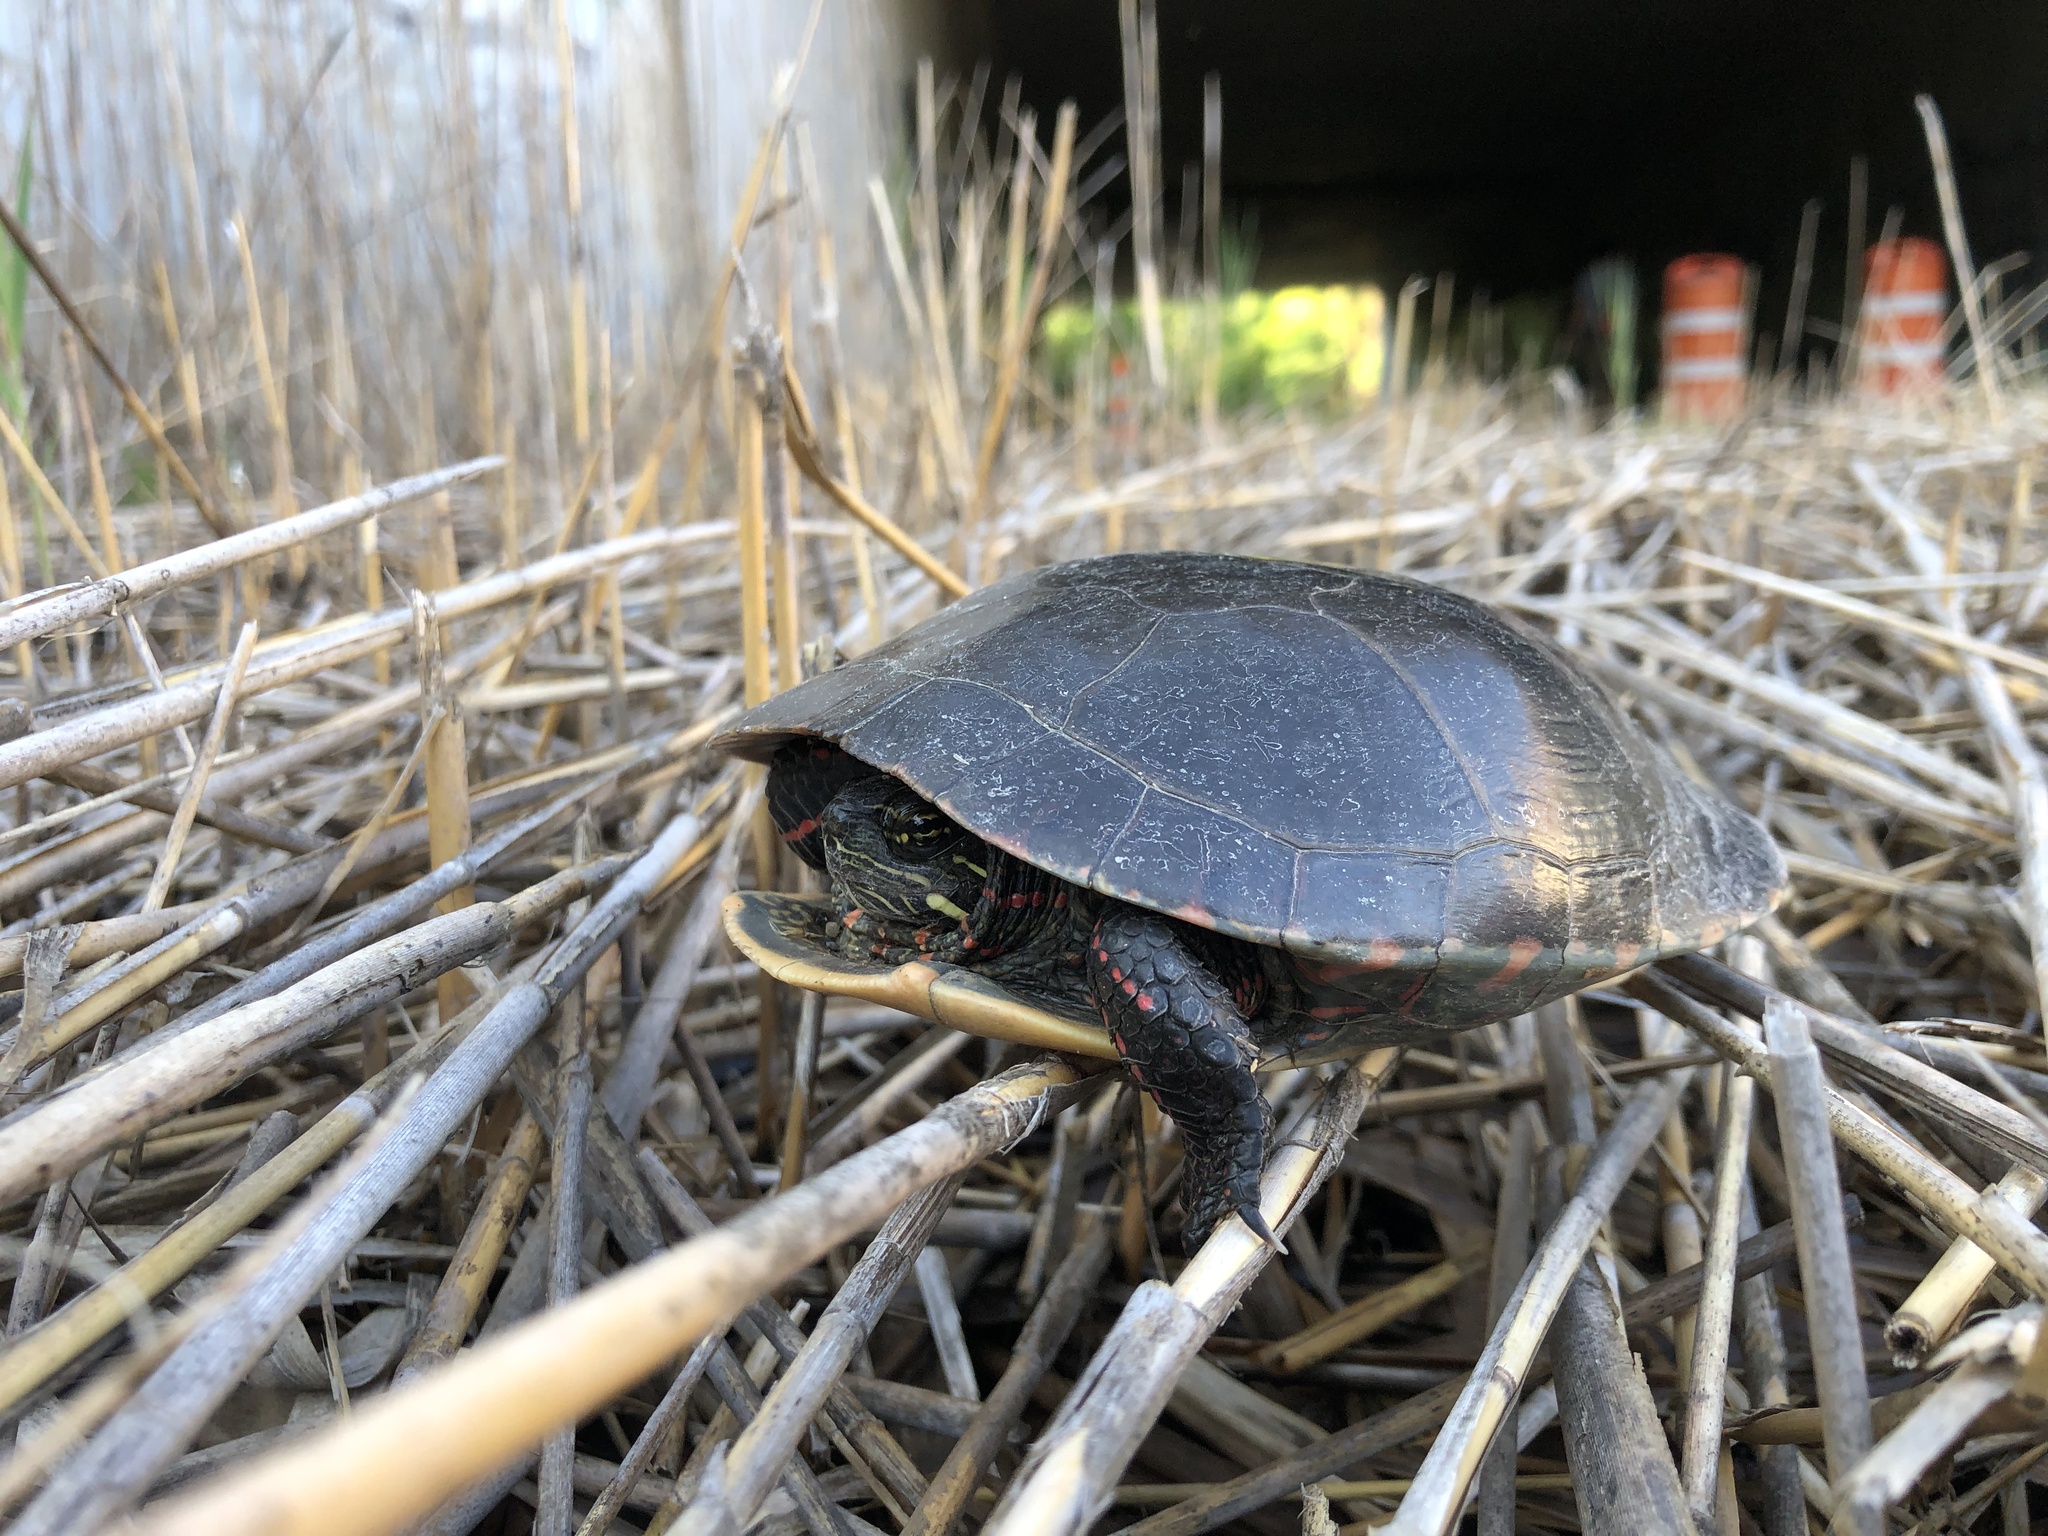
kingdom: Animalia
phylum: Chordata
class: Testudines
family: Emydidae
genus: Chrysemys
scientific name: Chrysemys picta
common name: Painted turtle
